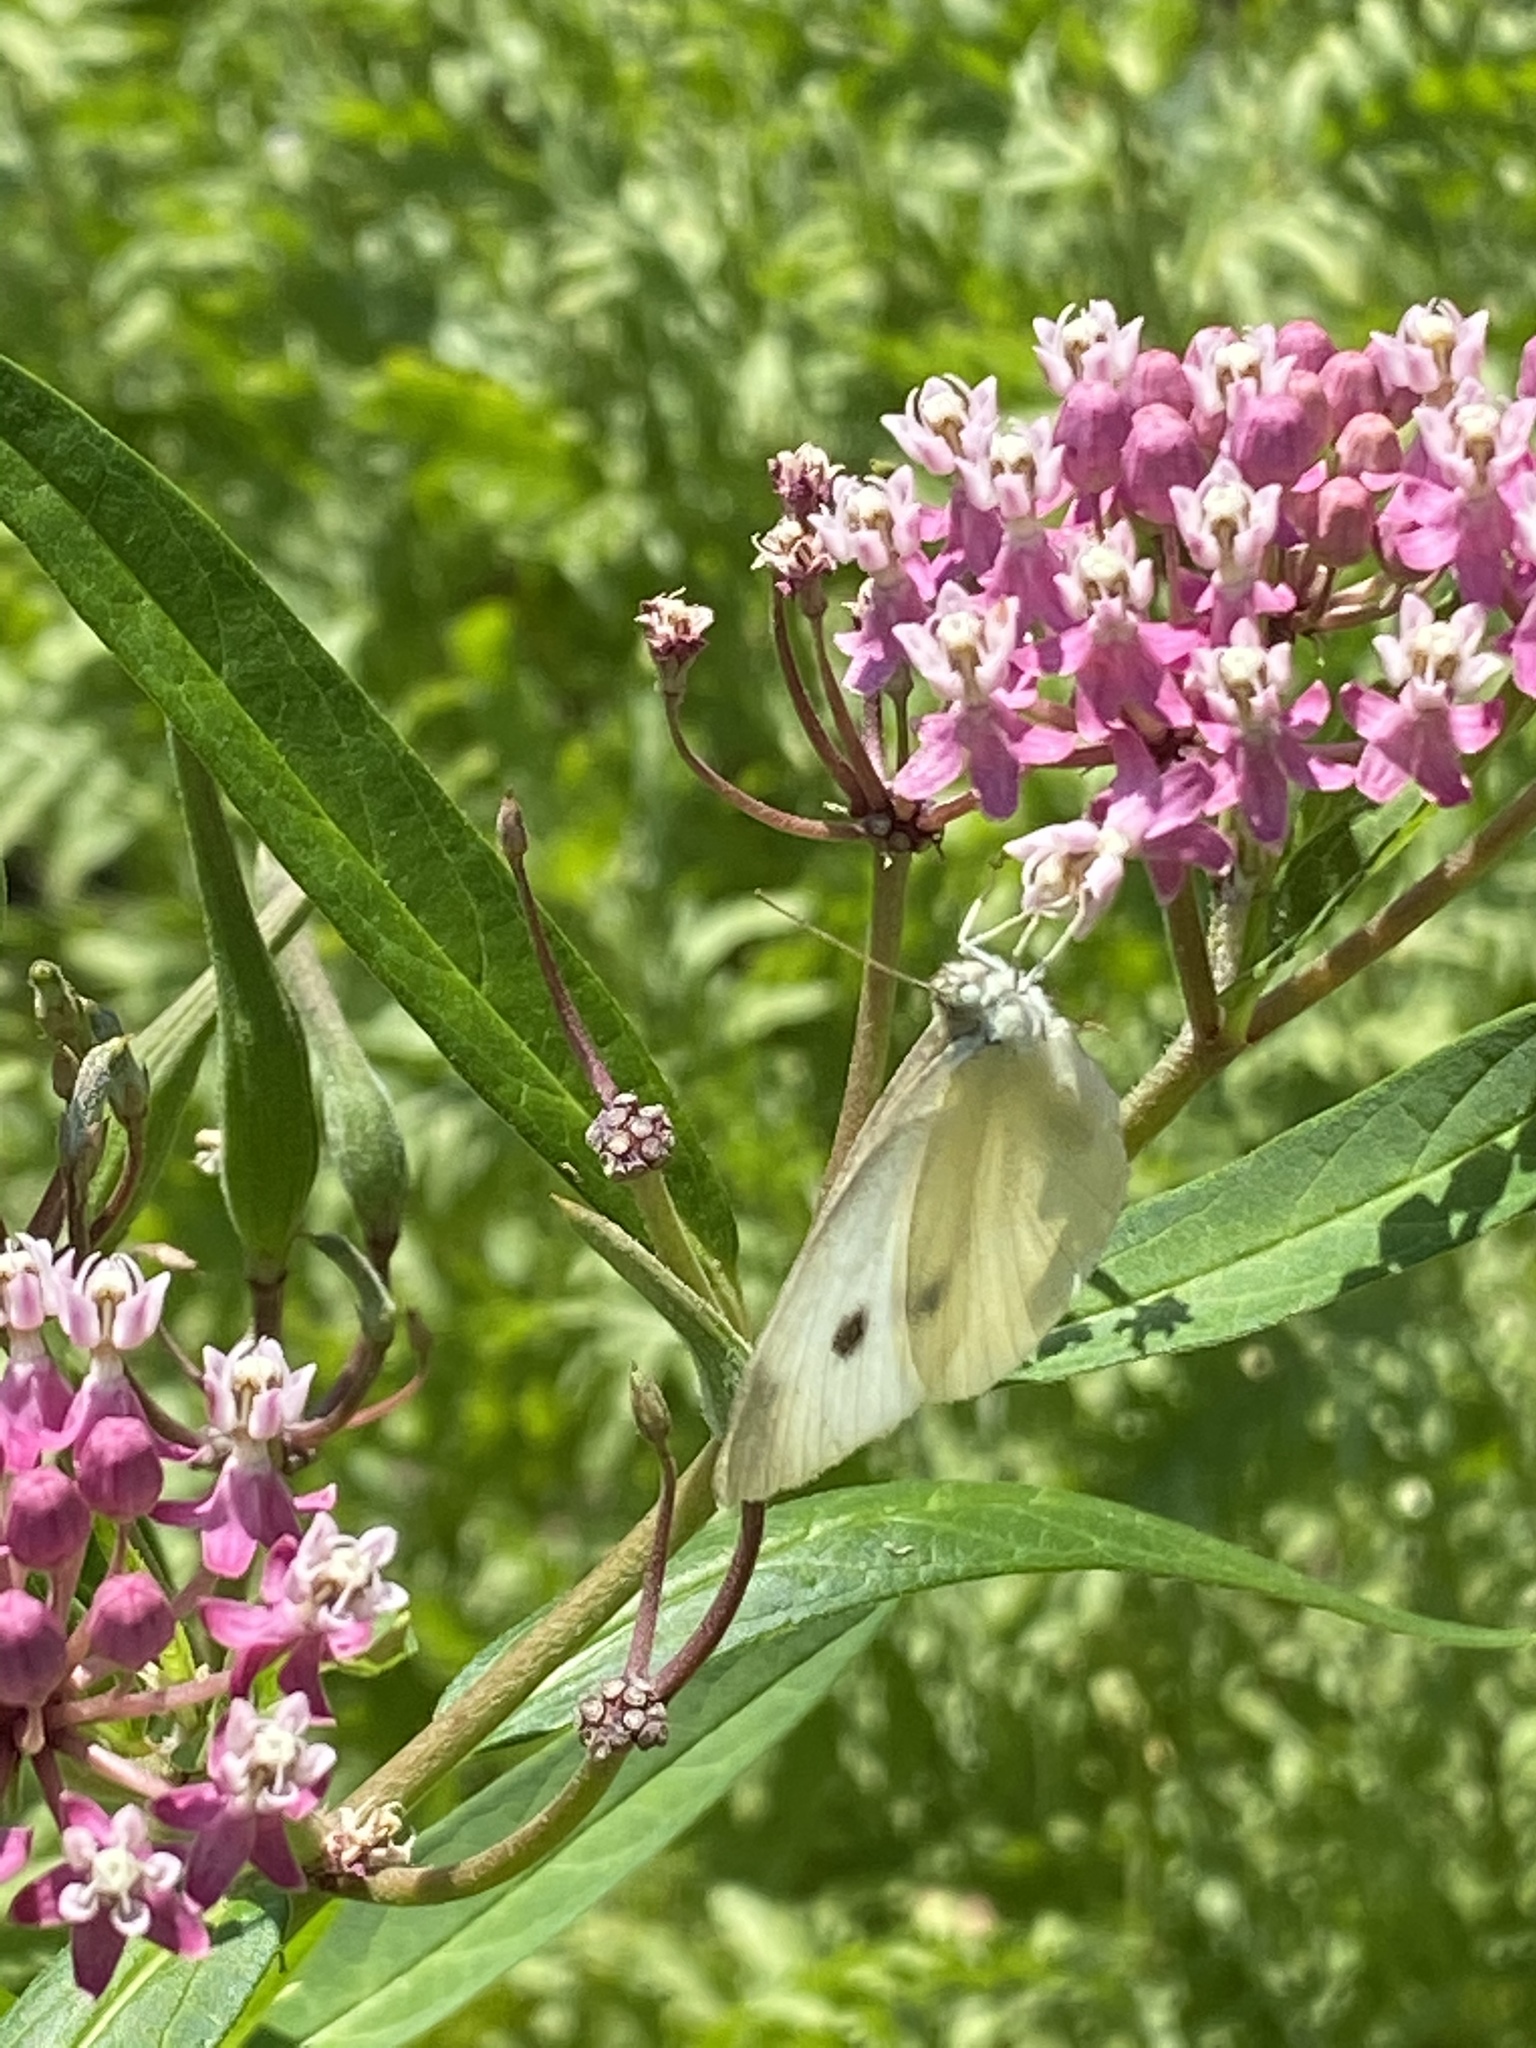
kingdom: Animalia
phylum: Arthropoda
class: Insecta
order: Lepidoptera
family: Pieridae
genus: Pieris
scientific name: Pieris rapae
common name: Small white
